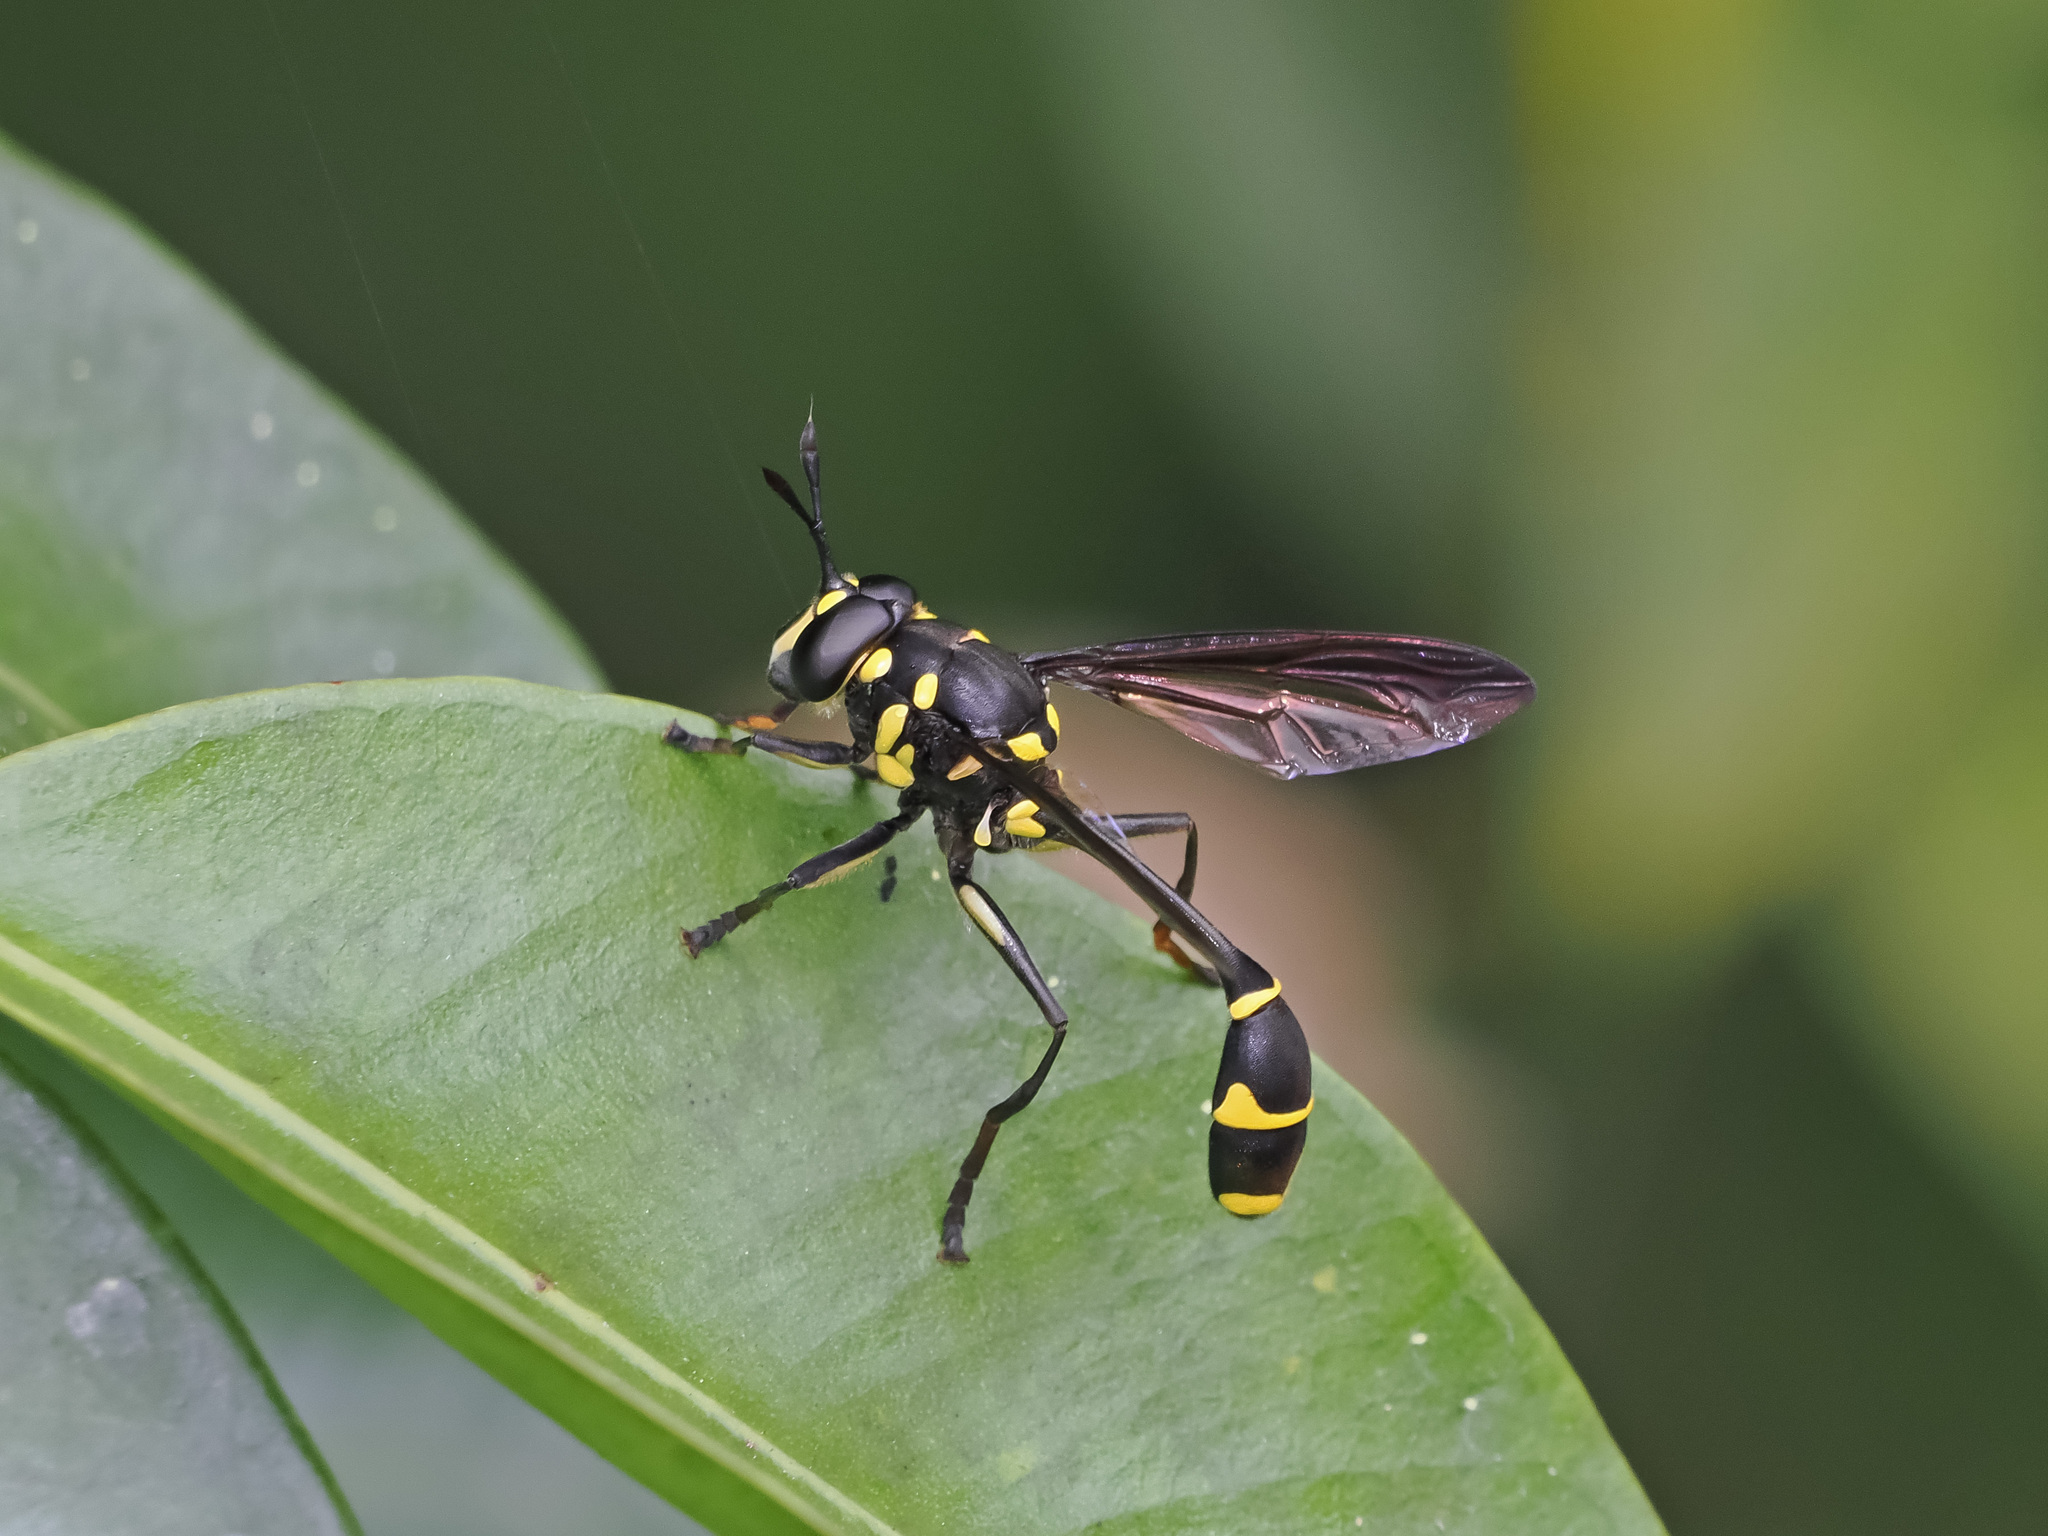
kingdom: Animalia
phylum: Arthropoda
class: Insecta
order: Diptera
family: Syrphidae
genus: Monoceromyia
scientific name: Monoceromyia
